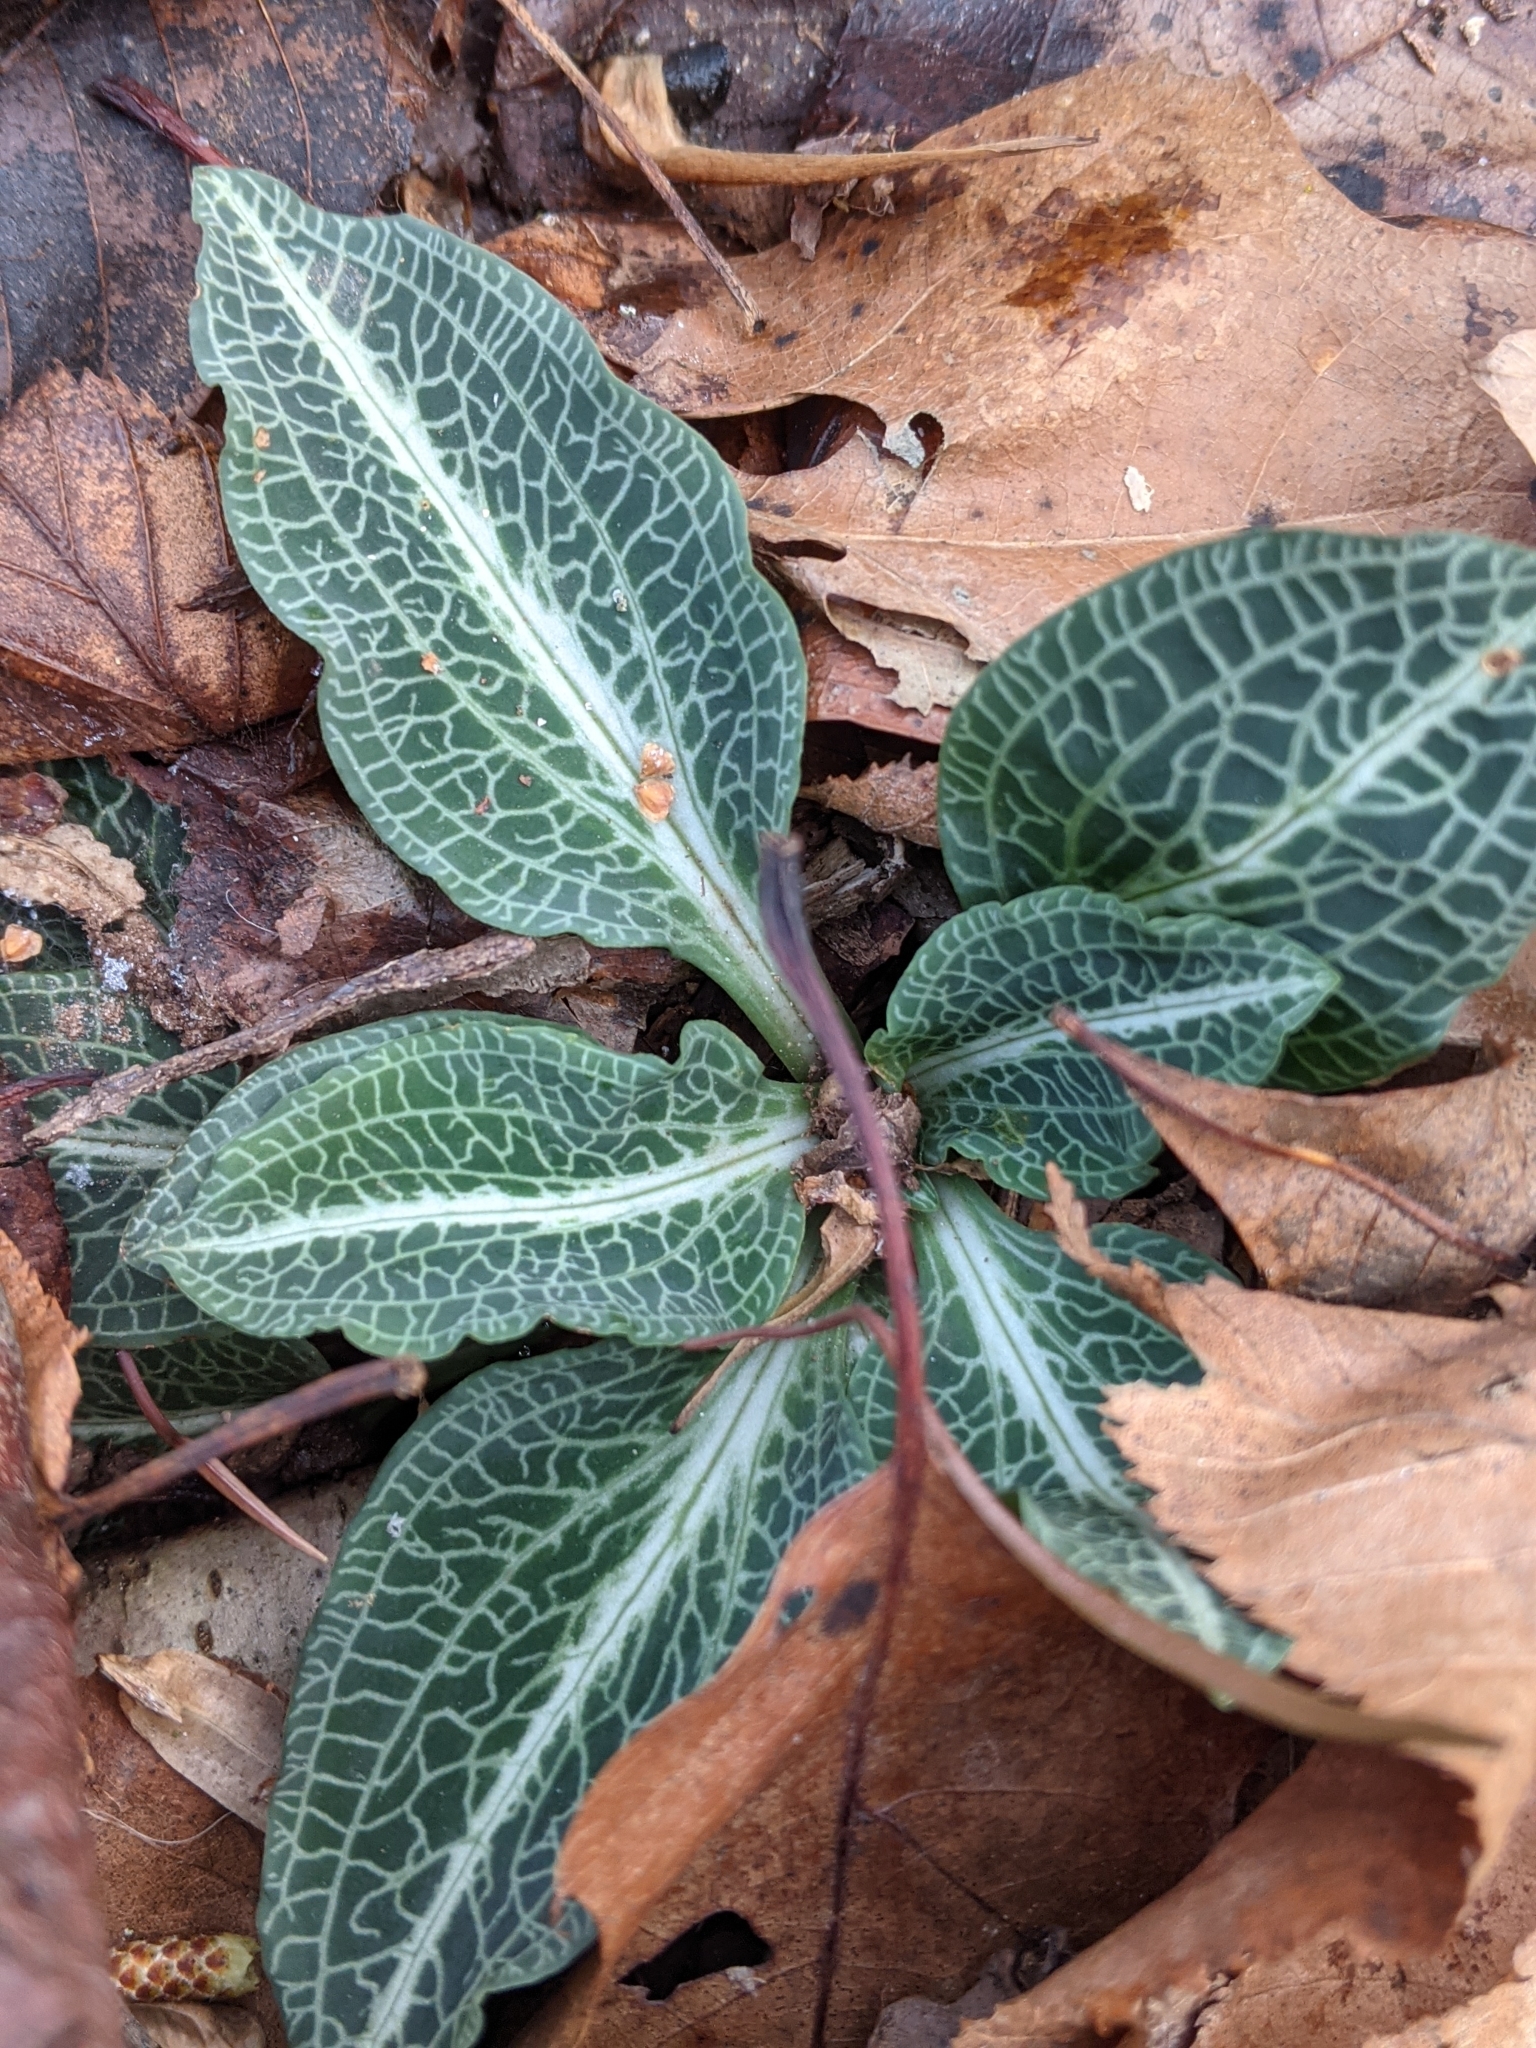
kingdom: Plantae
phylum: Tracheophyta
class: Liliopsida
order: Asparagales
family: Orchidaceae
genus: Goodyera
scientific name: Goodyera pubescens
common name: Downy rattlesnake-plantain
